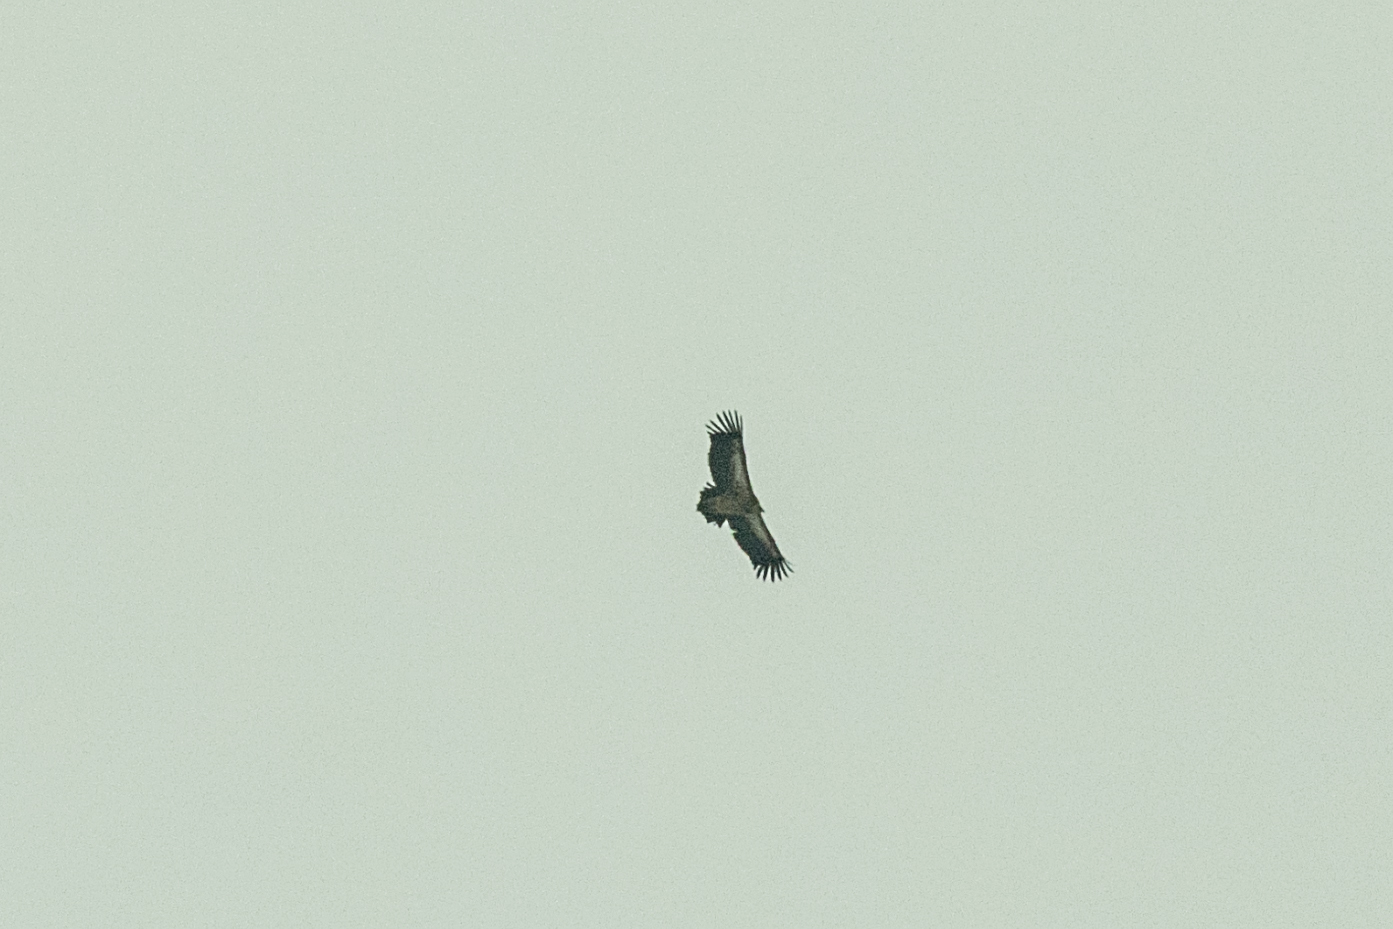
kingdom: Animalia
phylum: Chordata
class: Aves
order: Accipitriformes
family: Accipitridae
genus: Gyps
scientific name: Gyps himalayensis
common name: Himalayan griffon
